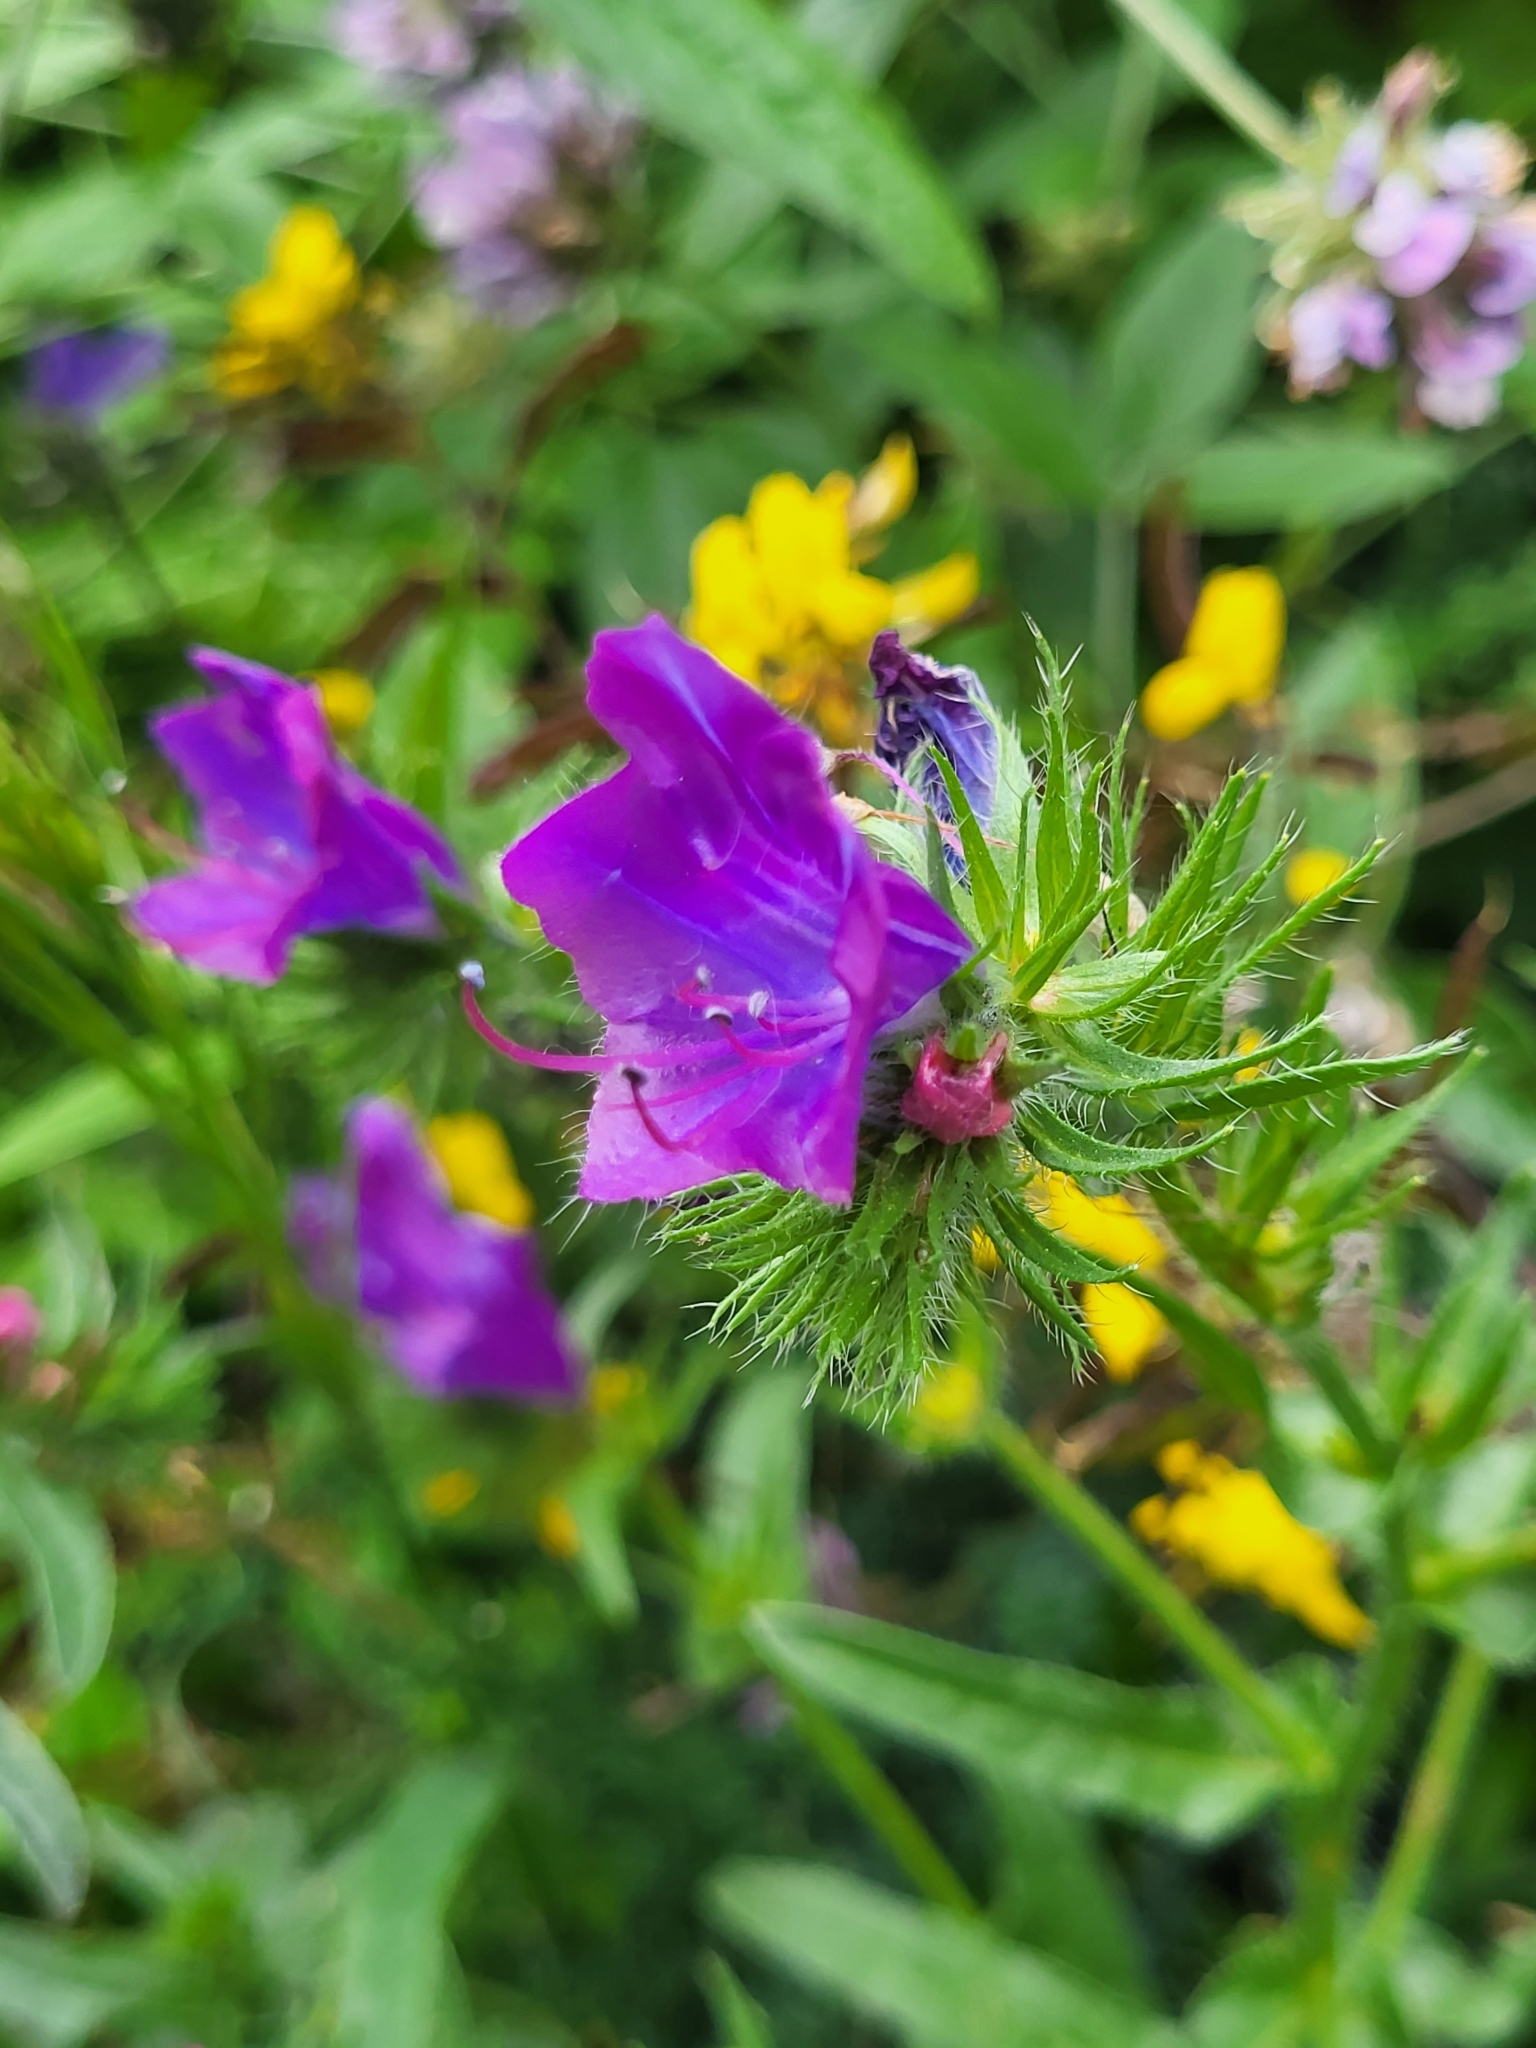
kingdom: Plantae
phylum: Tracheophyta
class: Magnoliopsida
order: Boraginales
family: Boraginaceae
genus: Echium
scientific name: Echium plantagineum
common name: Purple viper's-bugloss
